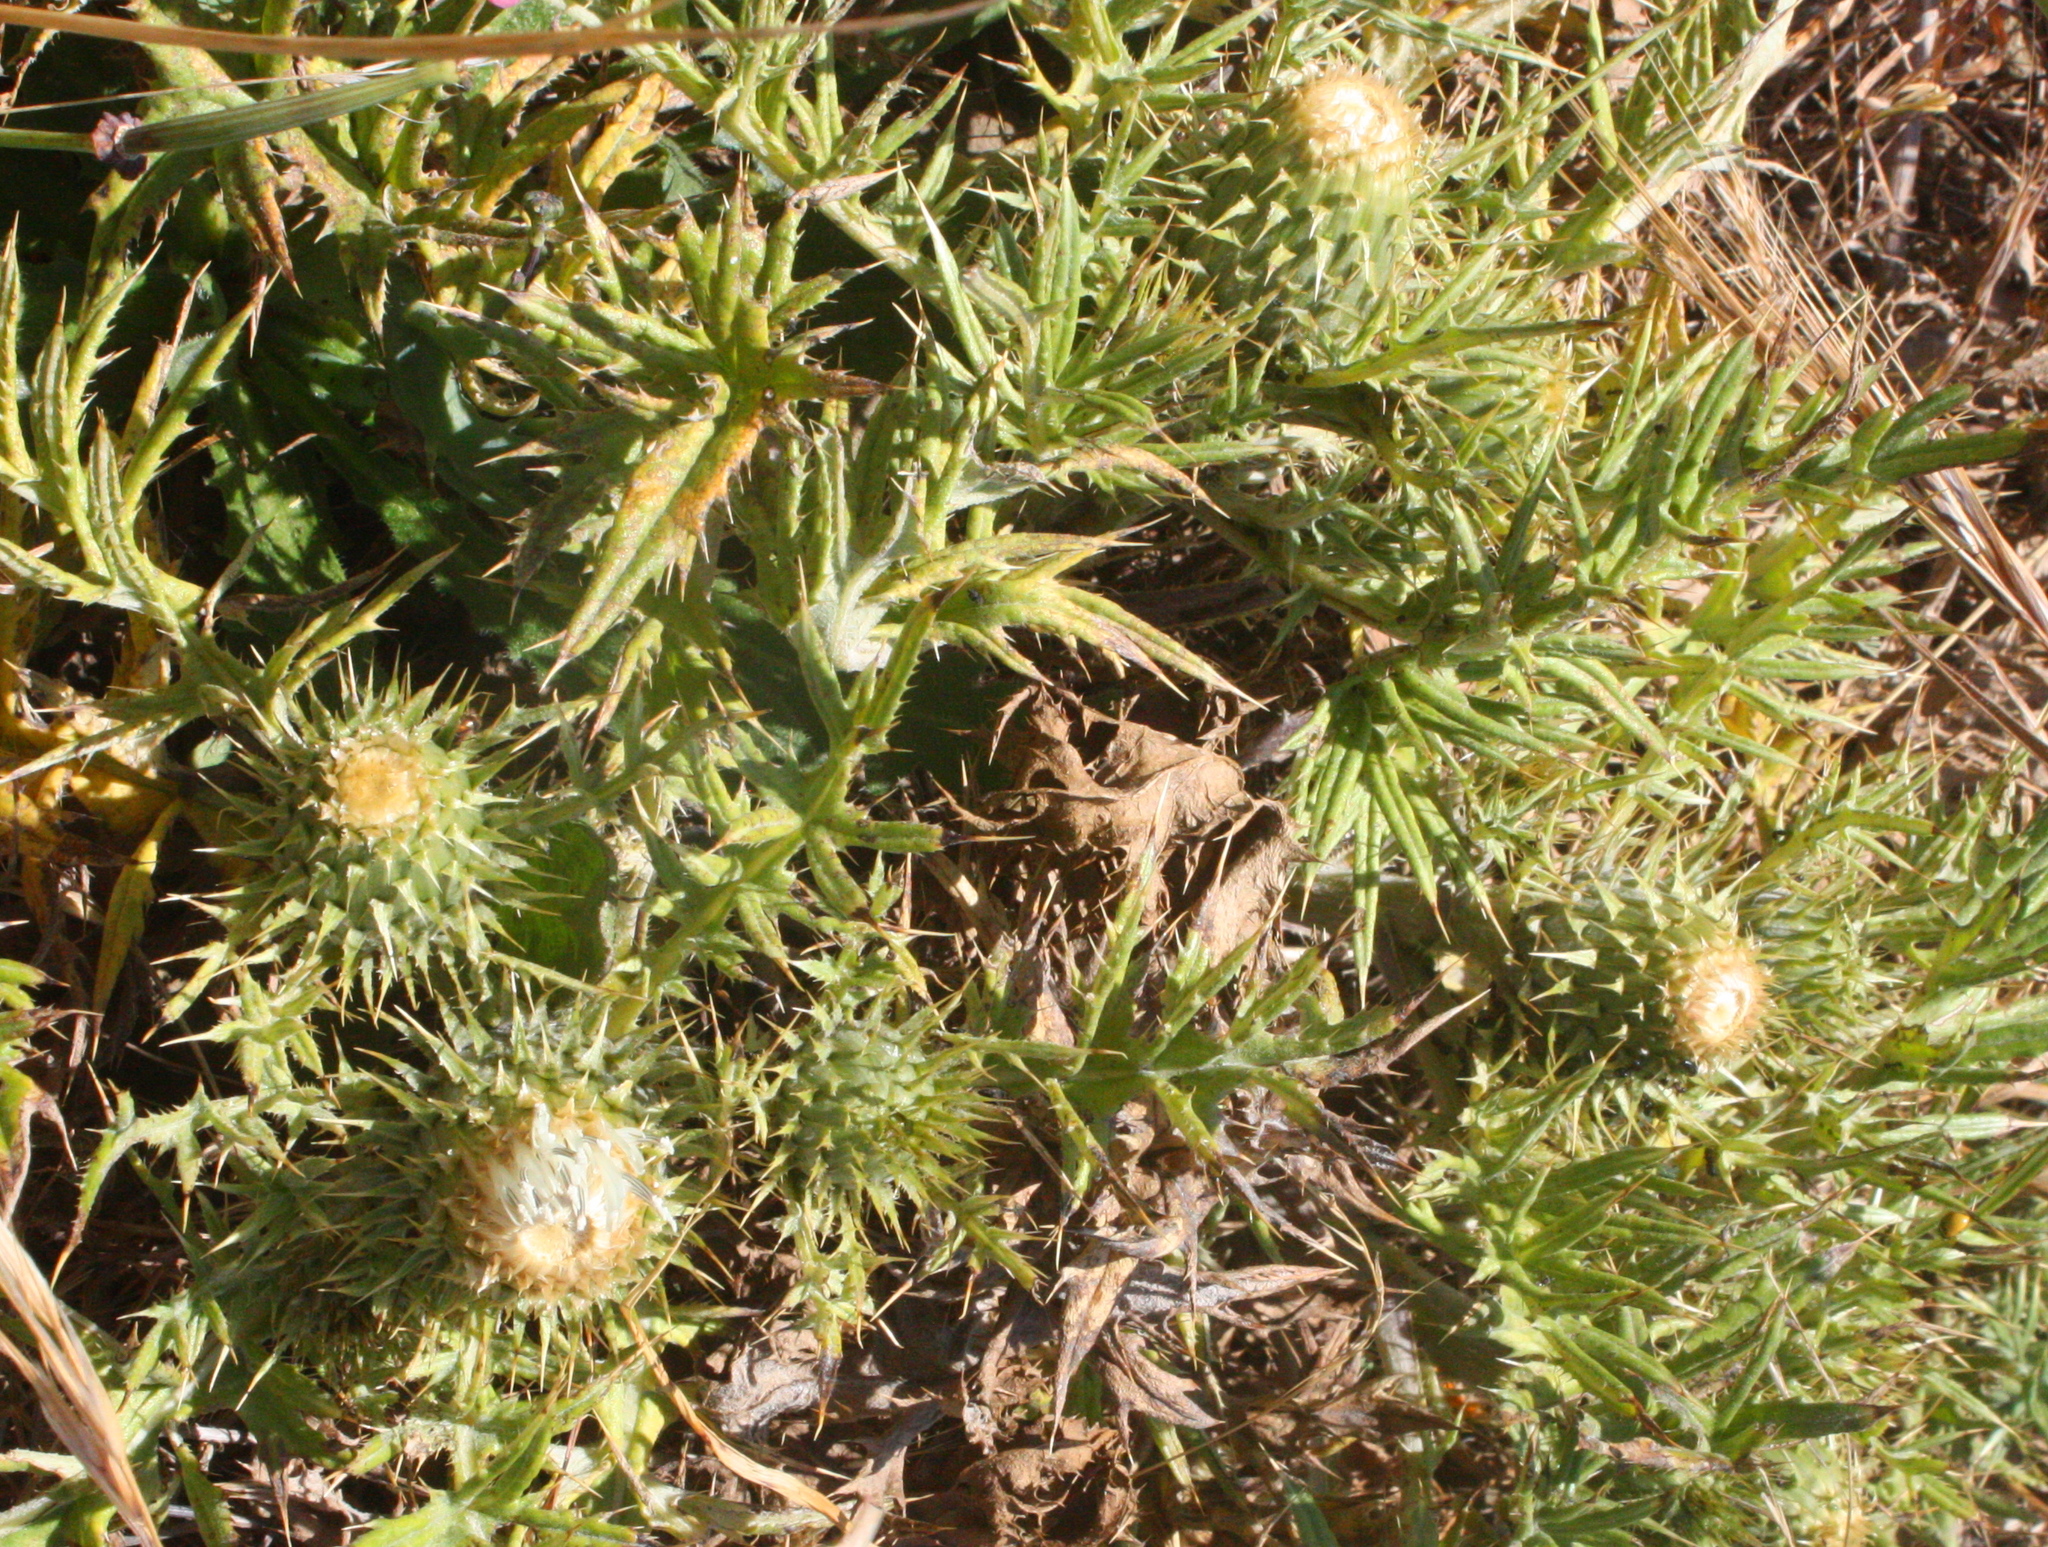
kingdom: Plantae
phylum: Tracheophyta
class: Magnoliopsida
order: Asterales
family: Asteraceae
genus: Cirsium
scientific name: Cirsium quercetorum
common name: Alameda county thistle
